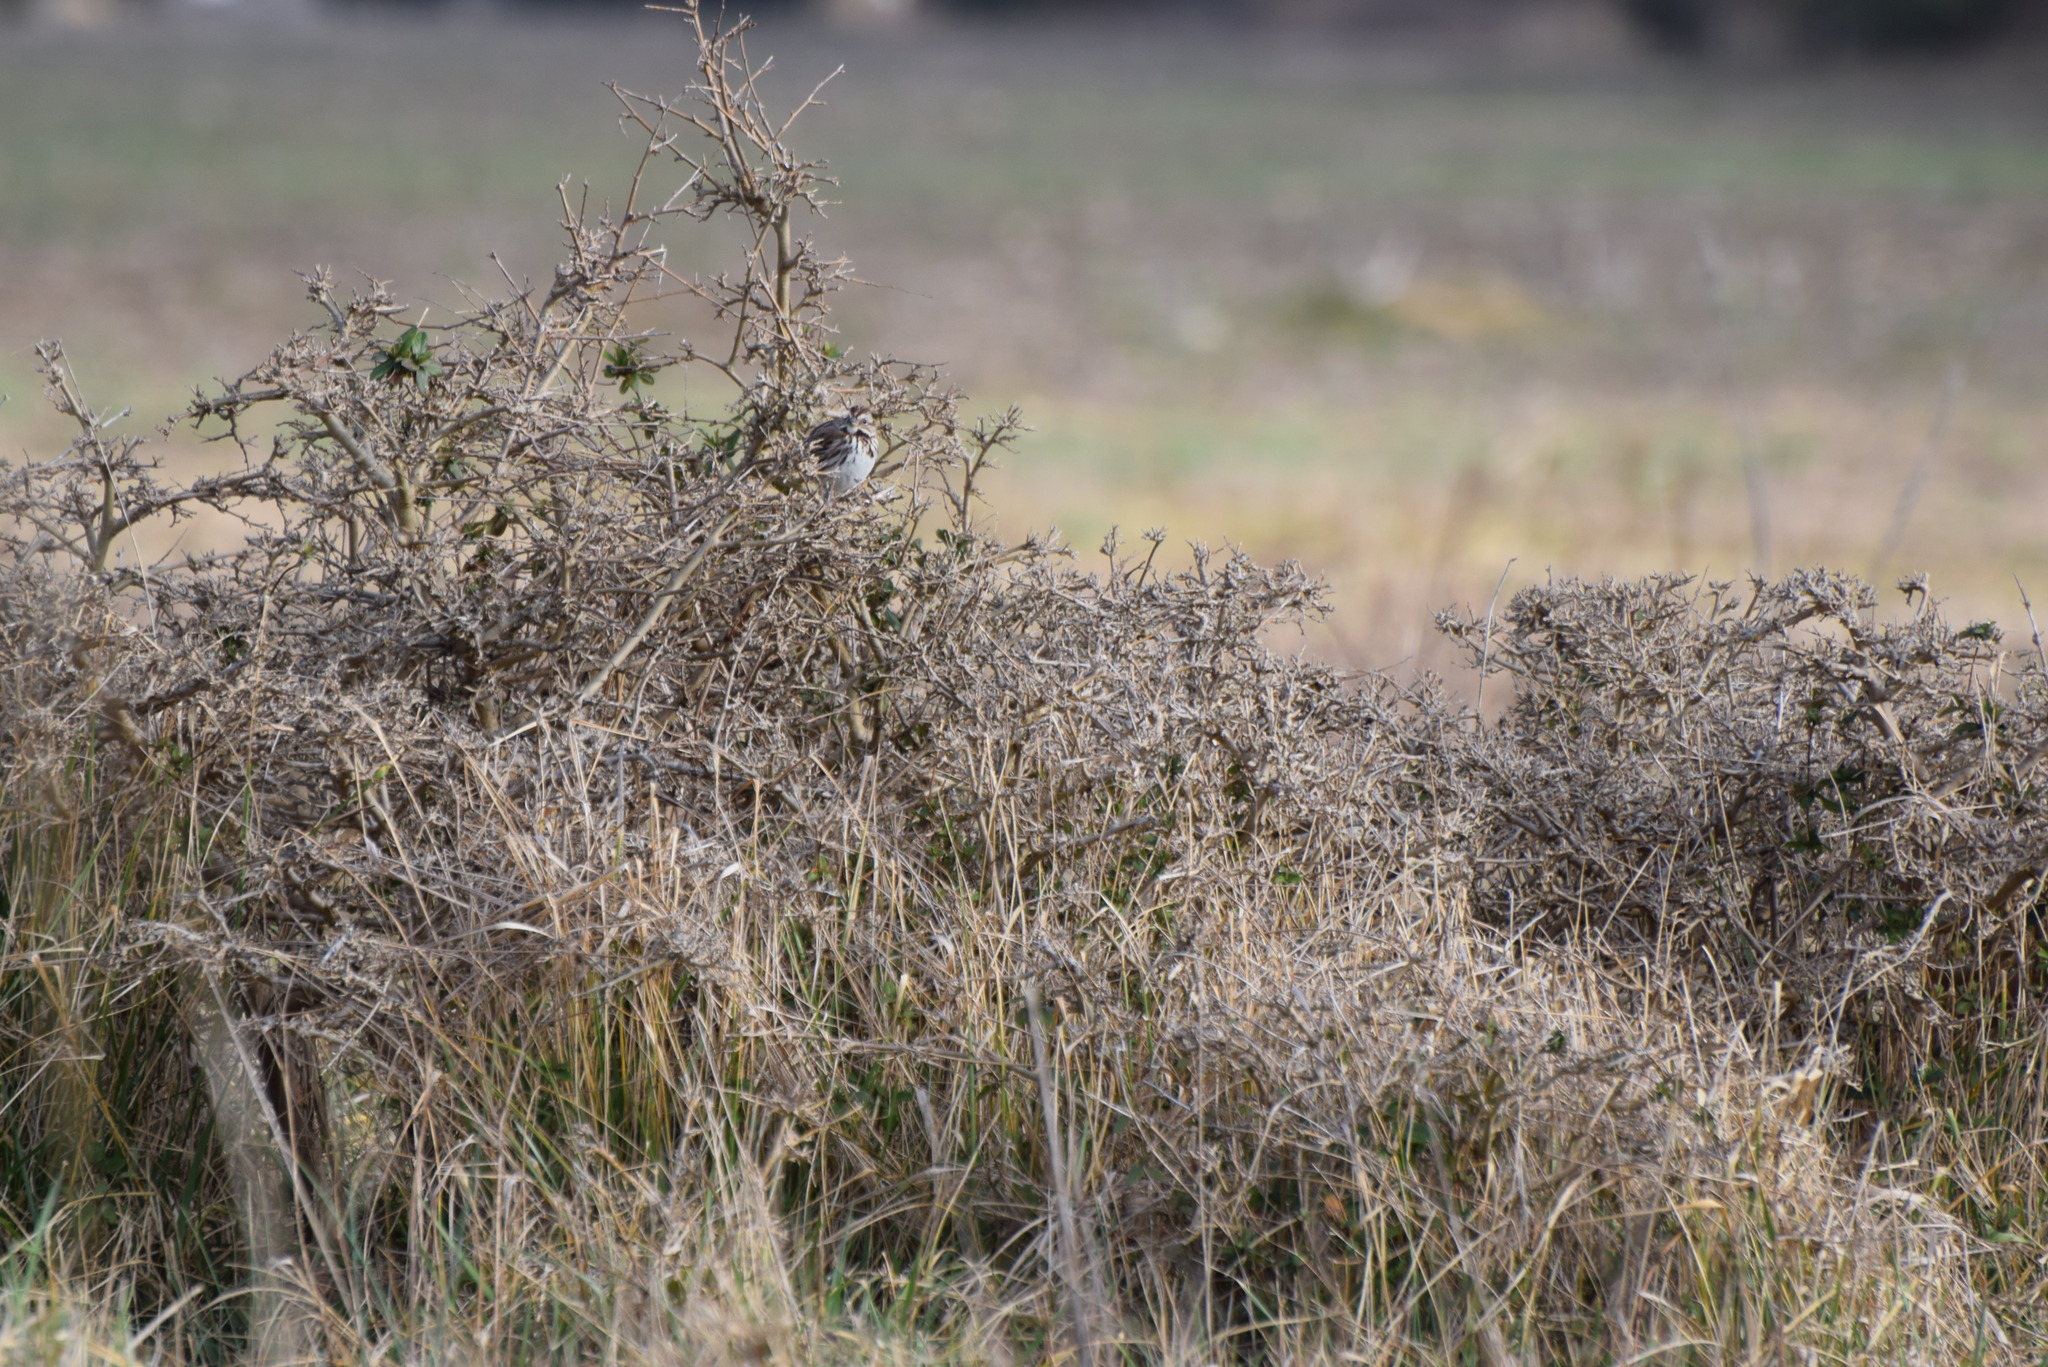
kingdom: Animalia
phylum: Chordata
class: Aves
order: Passeriformes
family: Passerellidae
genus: Melospiza
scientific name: Melospiza melodia
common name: Song sparrow
